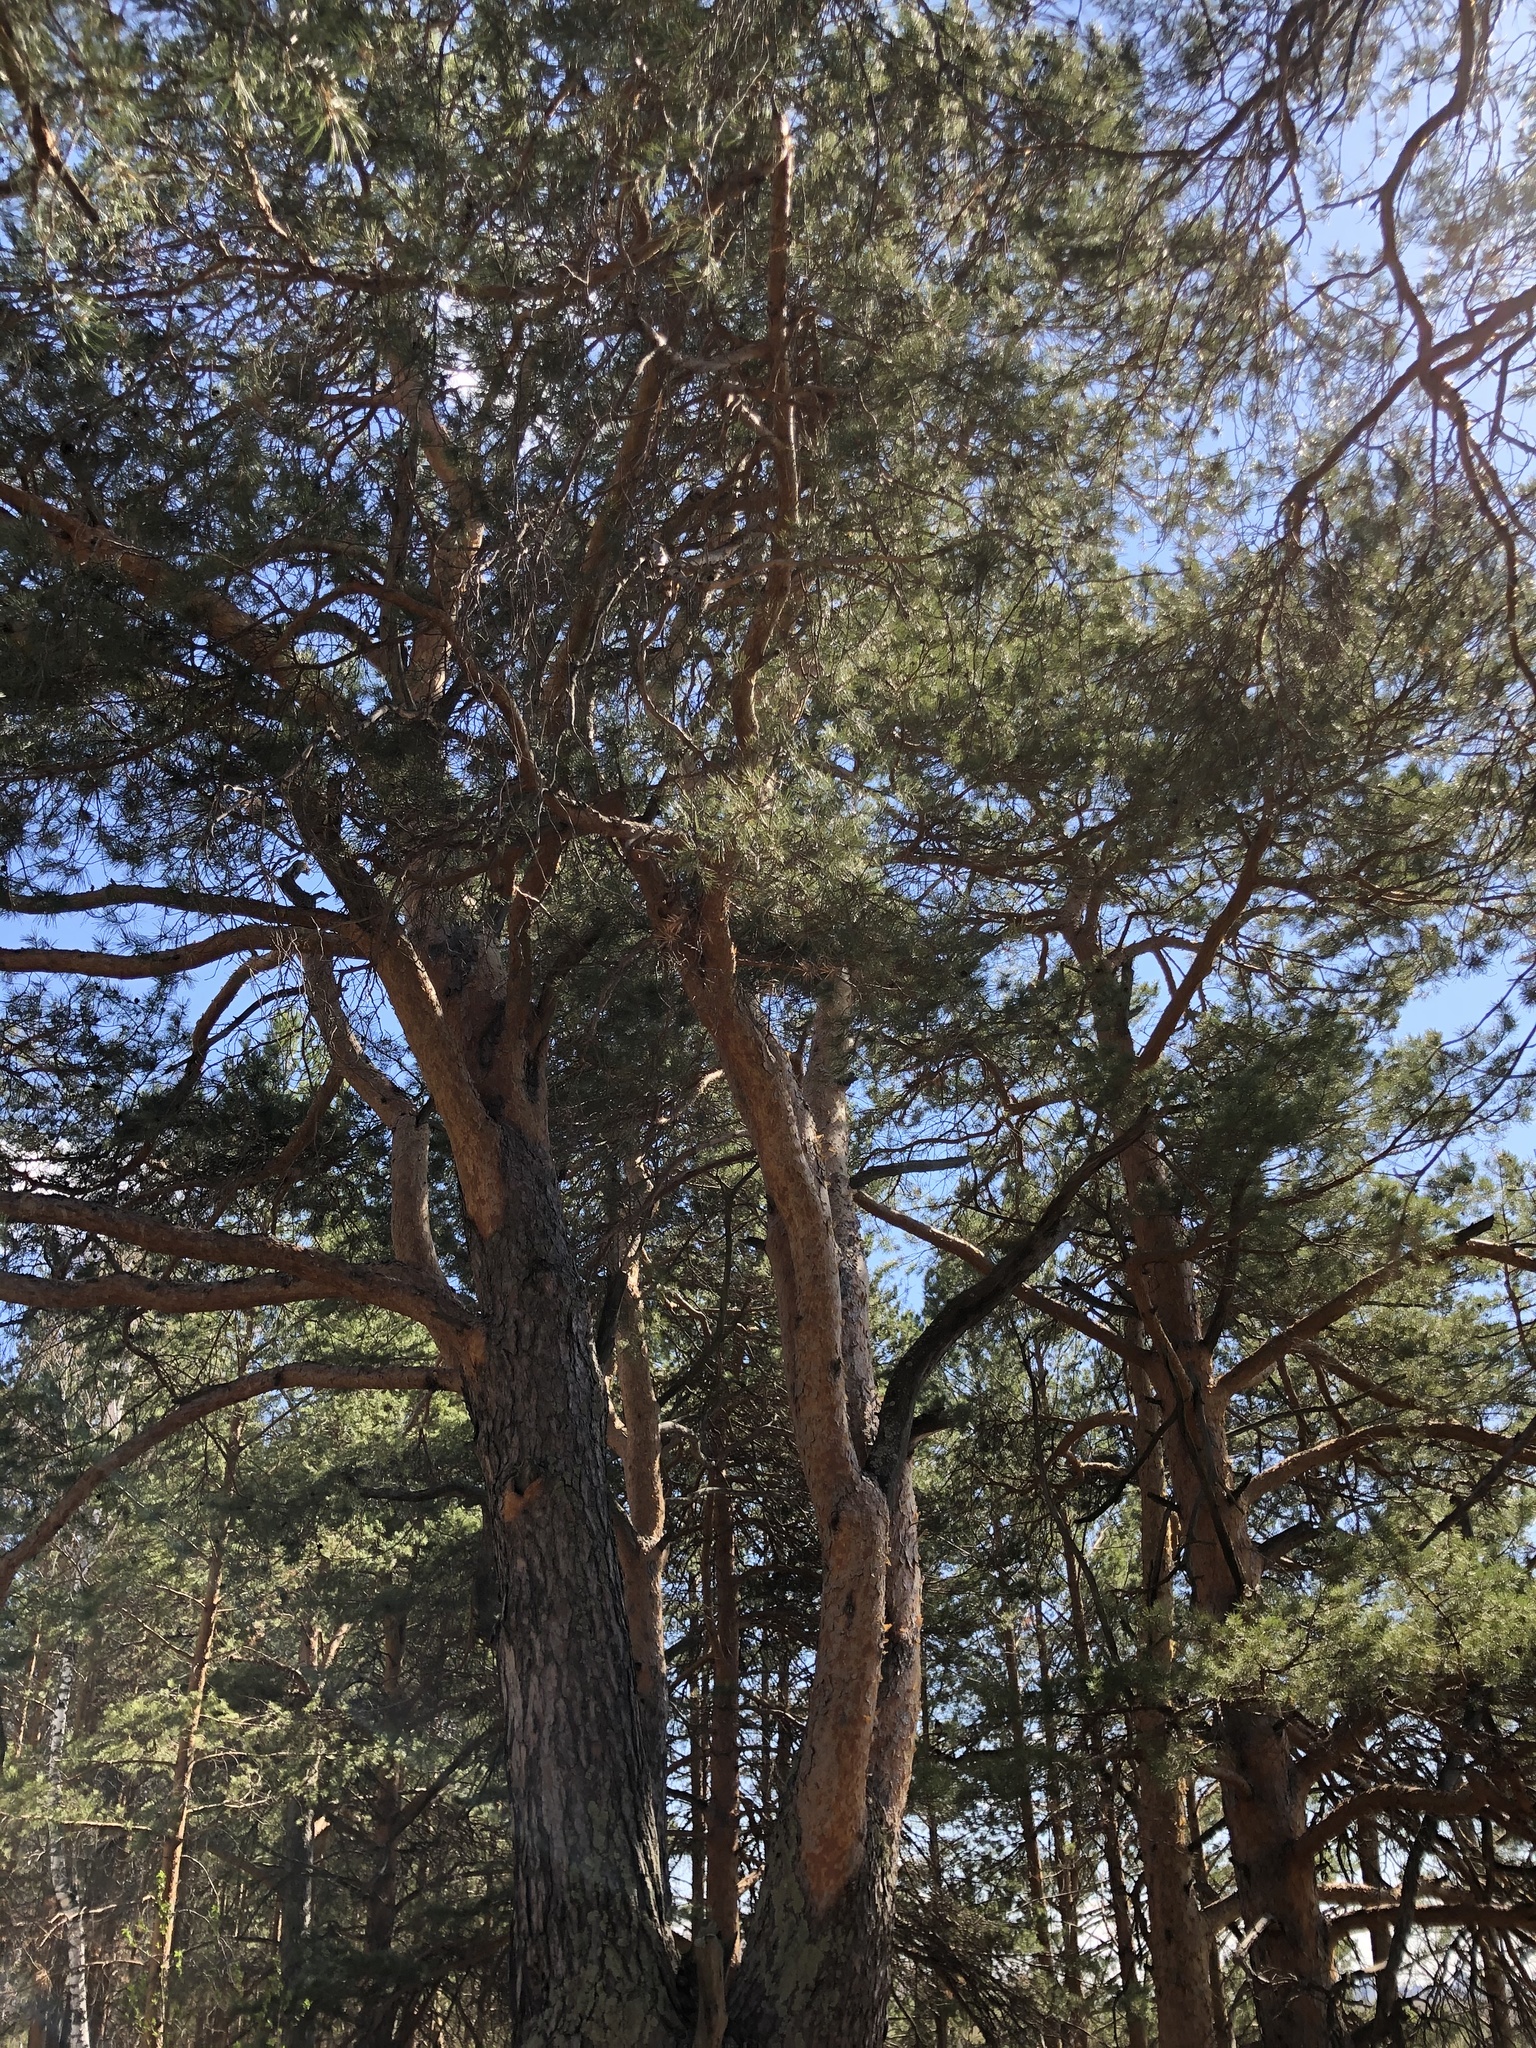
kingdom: Plantae
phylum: Tracheophyta
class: Pinopsida
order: Pinales
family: Pinaceae
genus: Pinus
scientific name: Pinus sylvestris
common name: Scots pine
